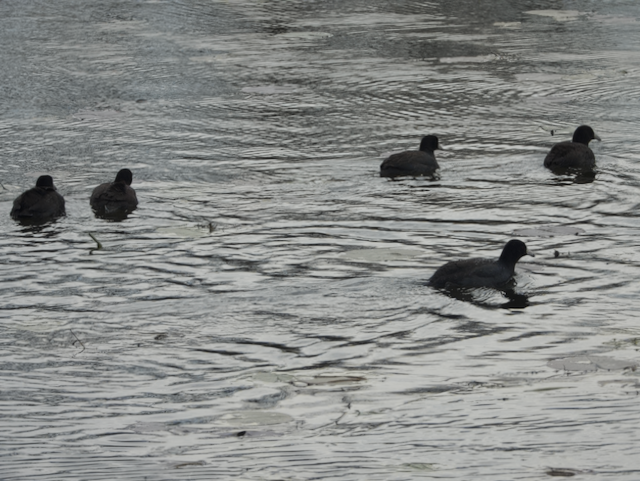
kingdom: Animalia
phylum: Chordata
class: Aves
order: Gruiformes
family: Rallidae
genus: Fulica
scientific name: Fulica americana
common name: American coot
